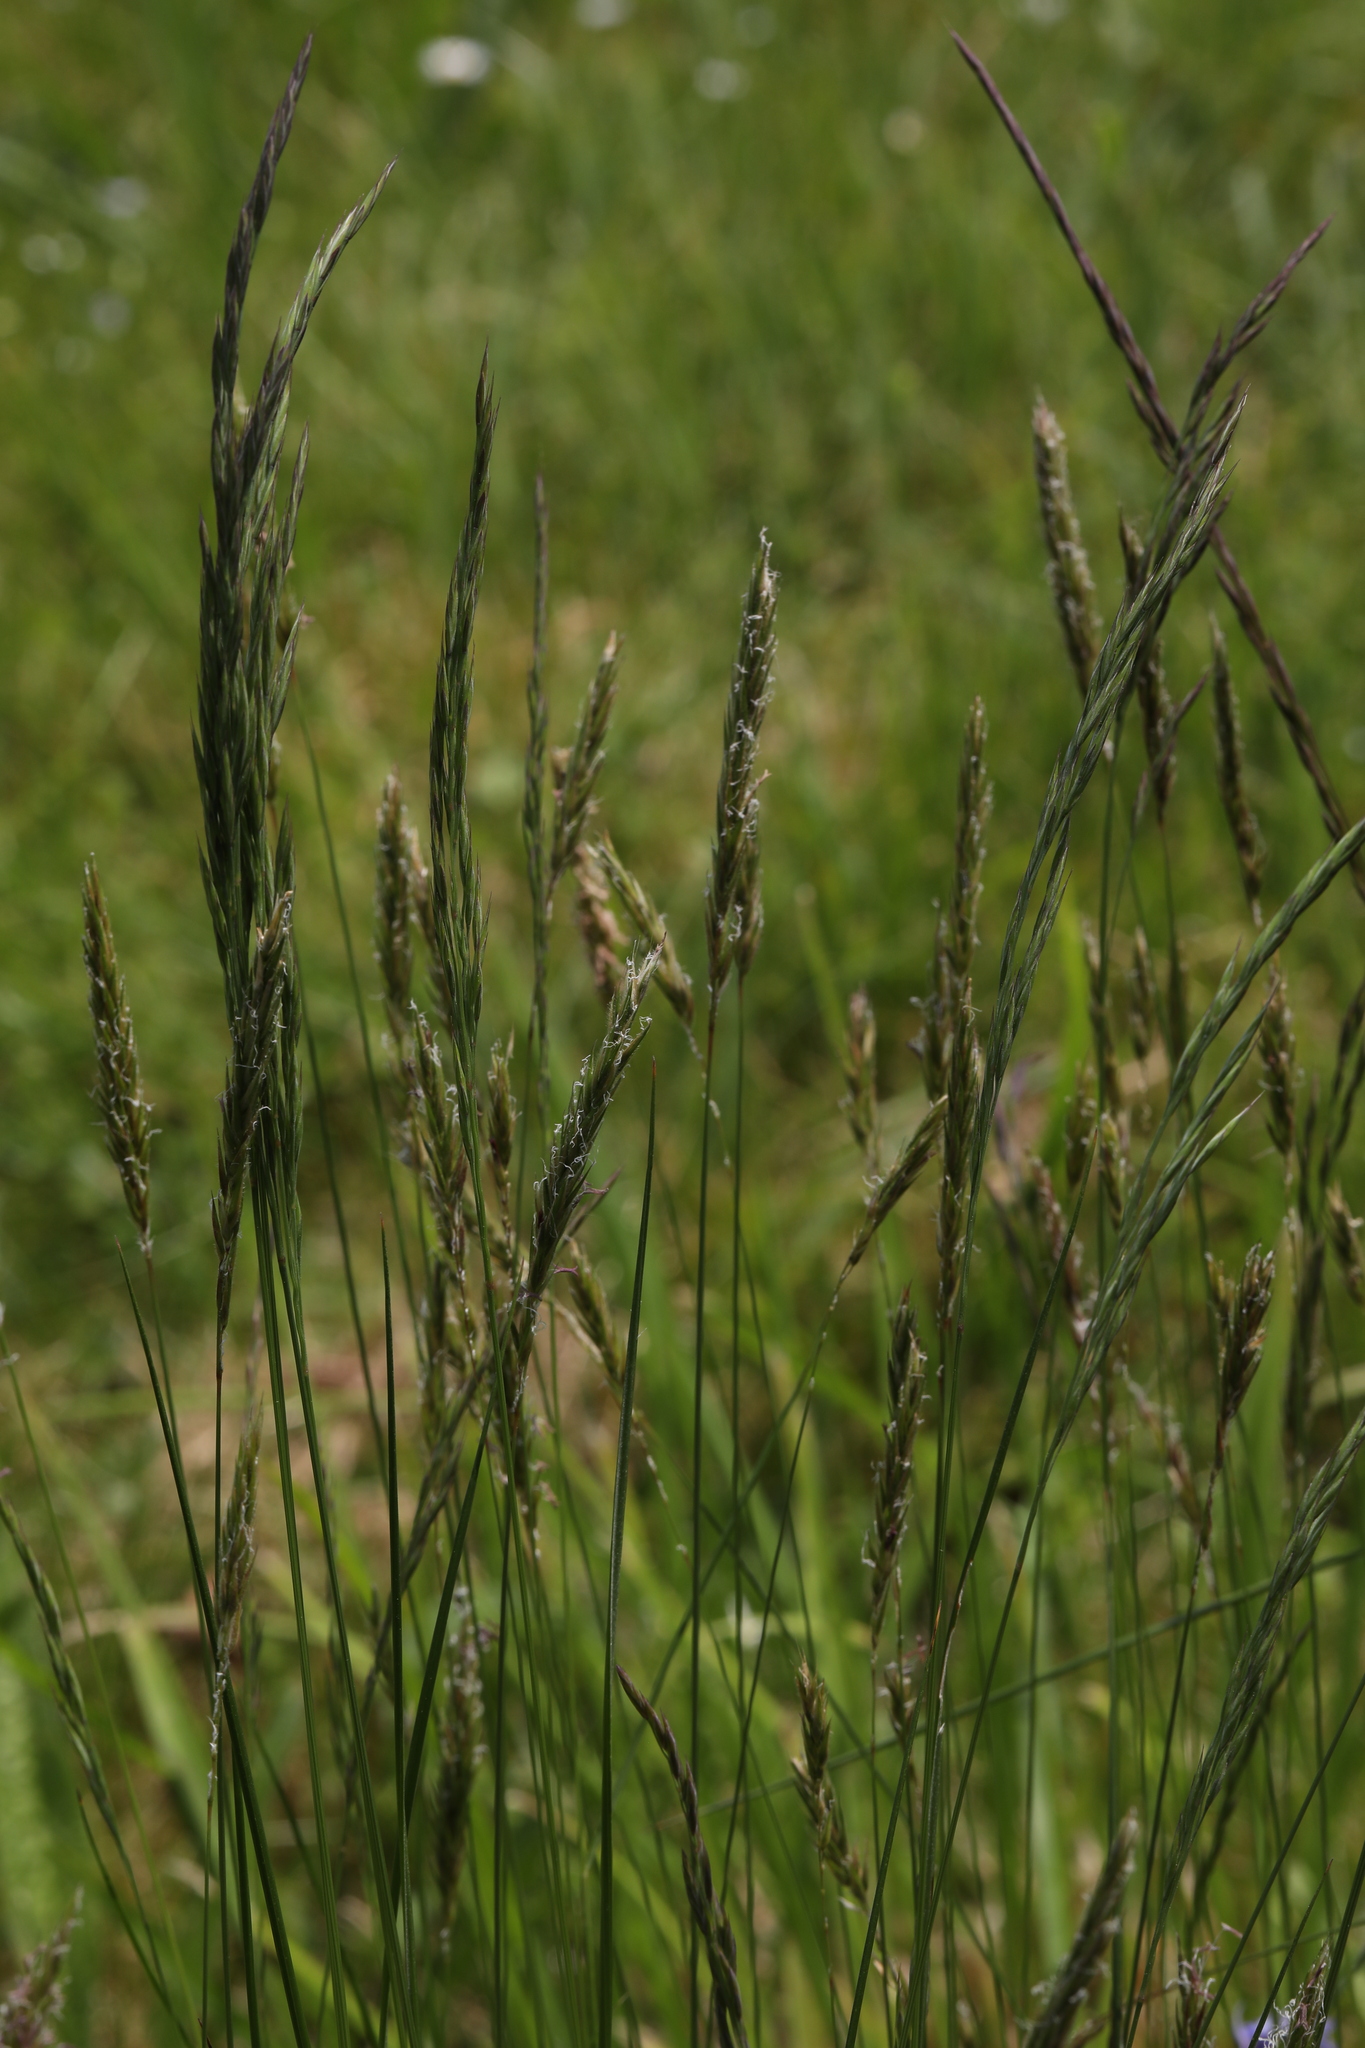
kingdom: Plantae
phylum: Tracheophyta
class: Liliopsida
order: Poales
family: Poaceae
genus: Anthoxanthum
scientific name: Anthoxanthum odoratum
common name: Sweet vernalgrass
